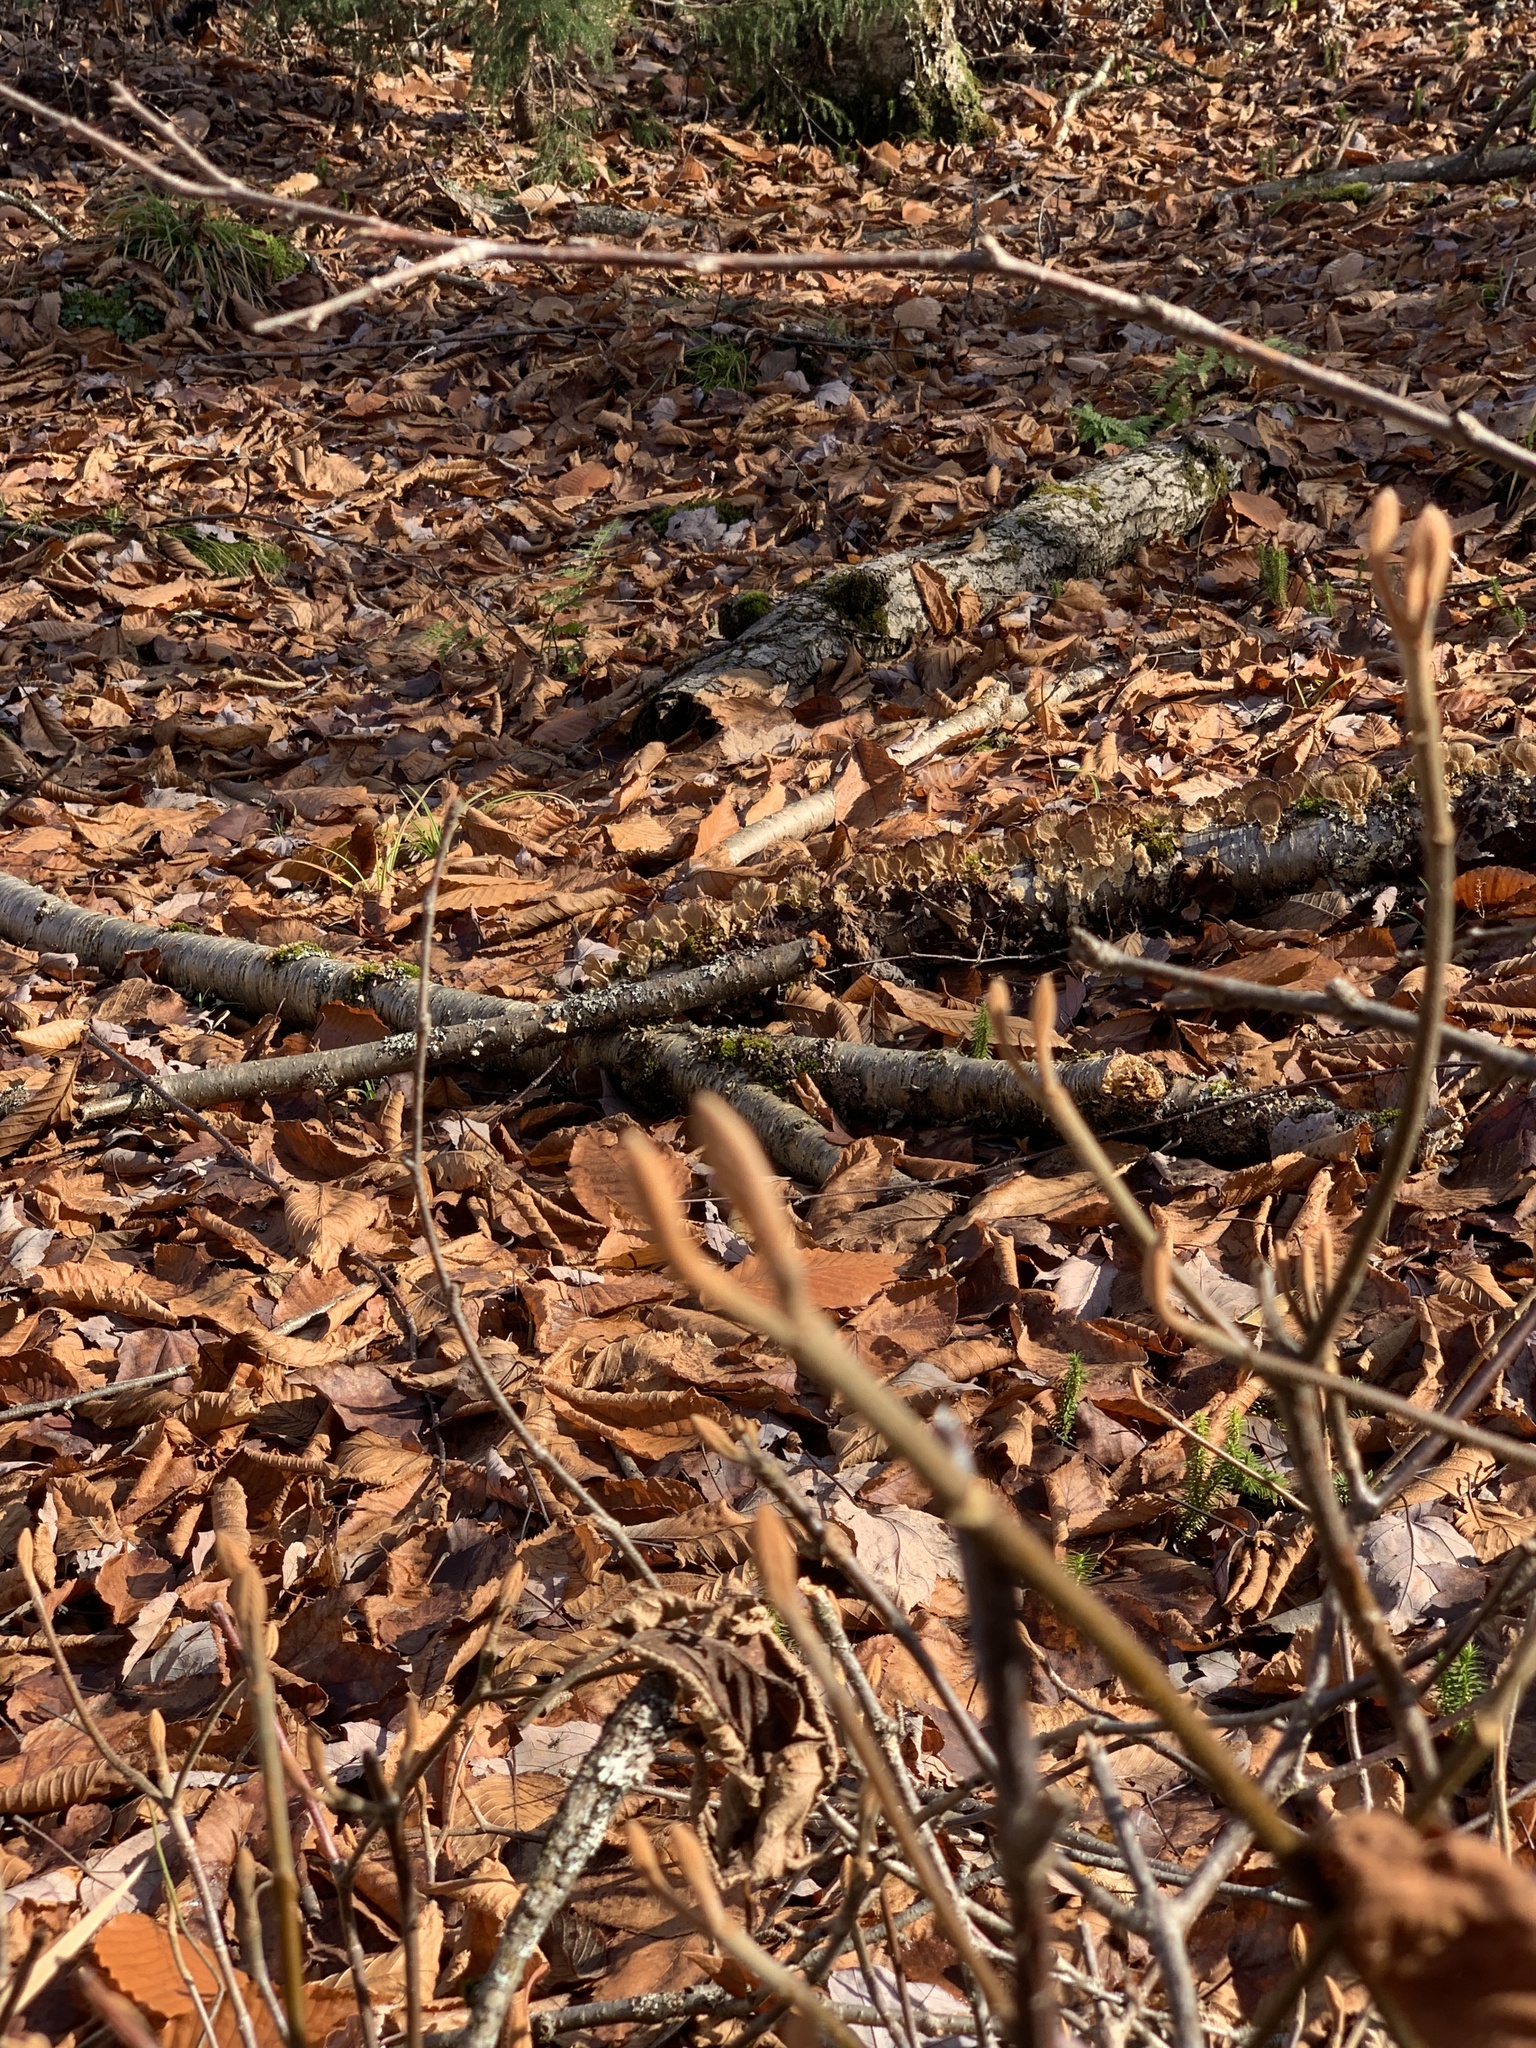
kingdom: Plantae
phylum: Tracheophyta
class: Magnoliopsida
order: Dipsacales
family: Viburnaceae
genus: Viburnum
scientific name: Viburnum lantanoides
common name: Hobblebush
